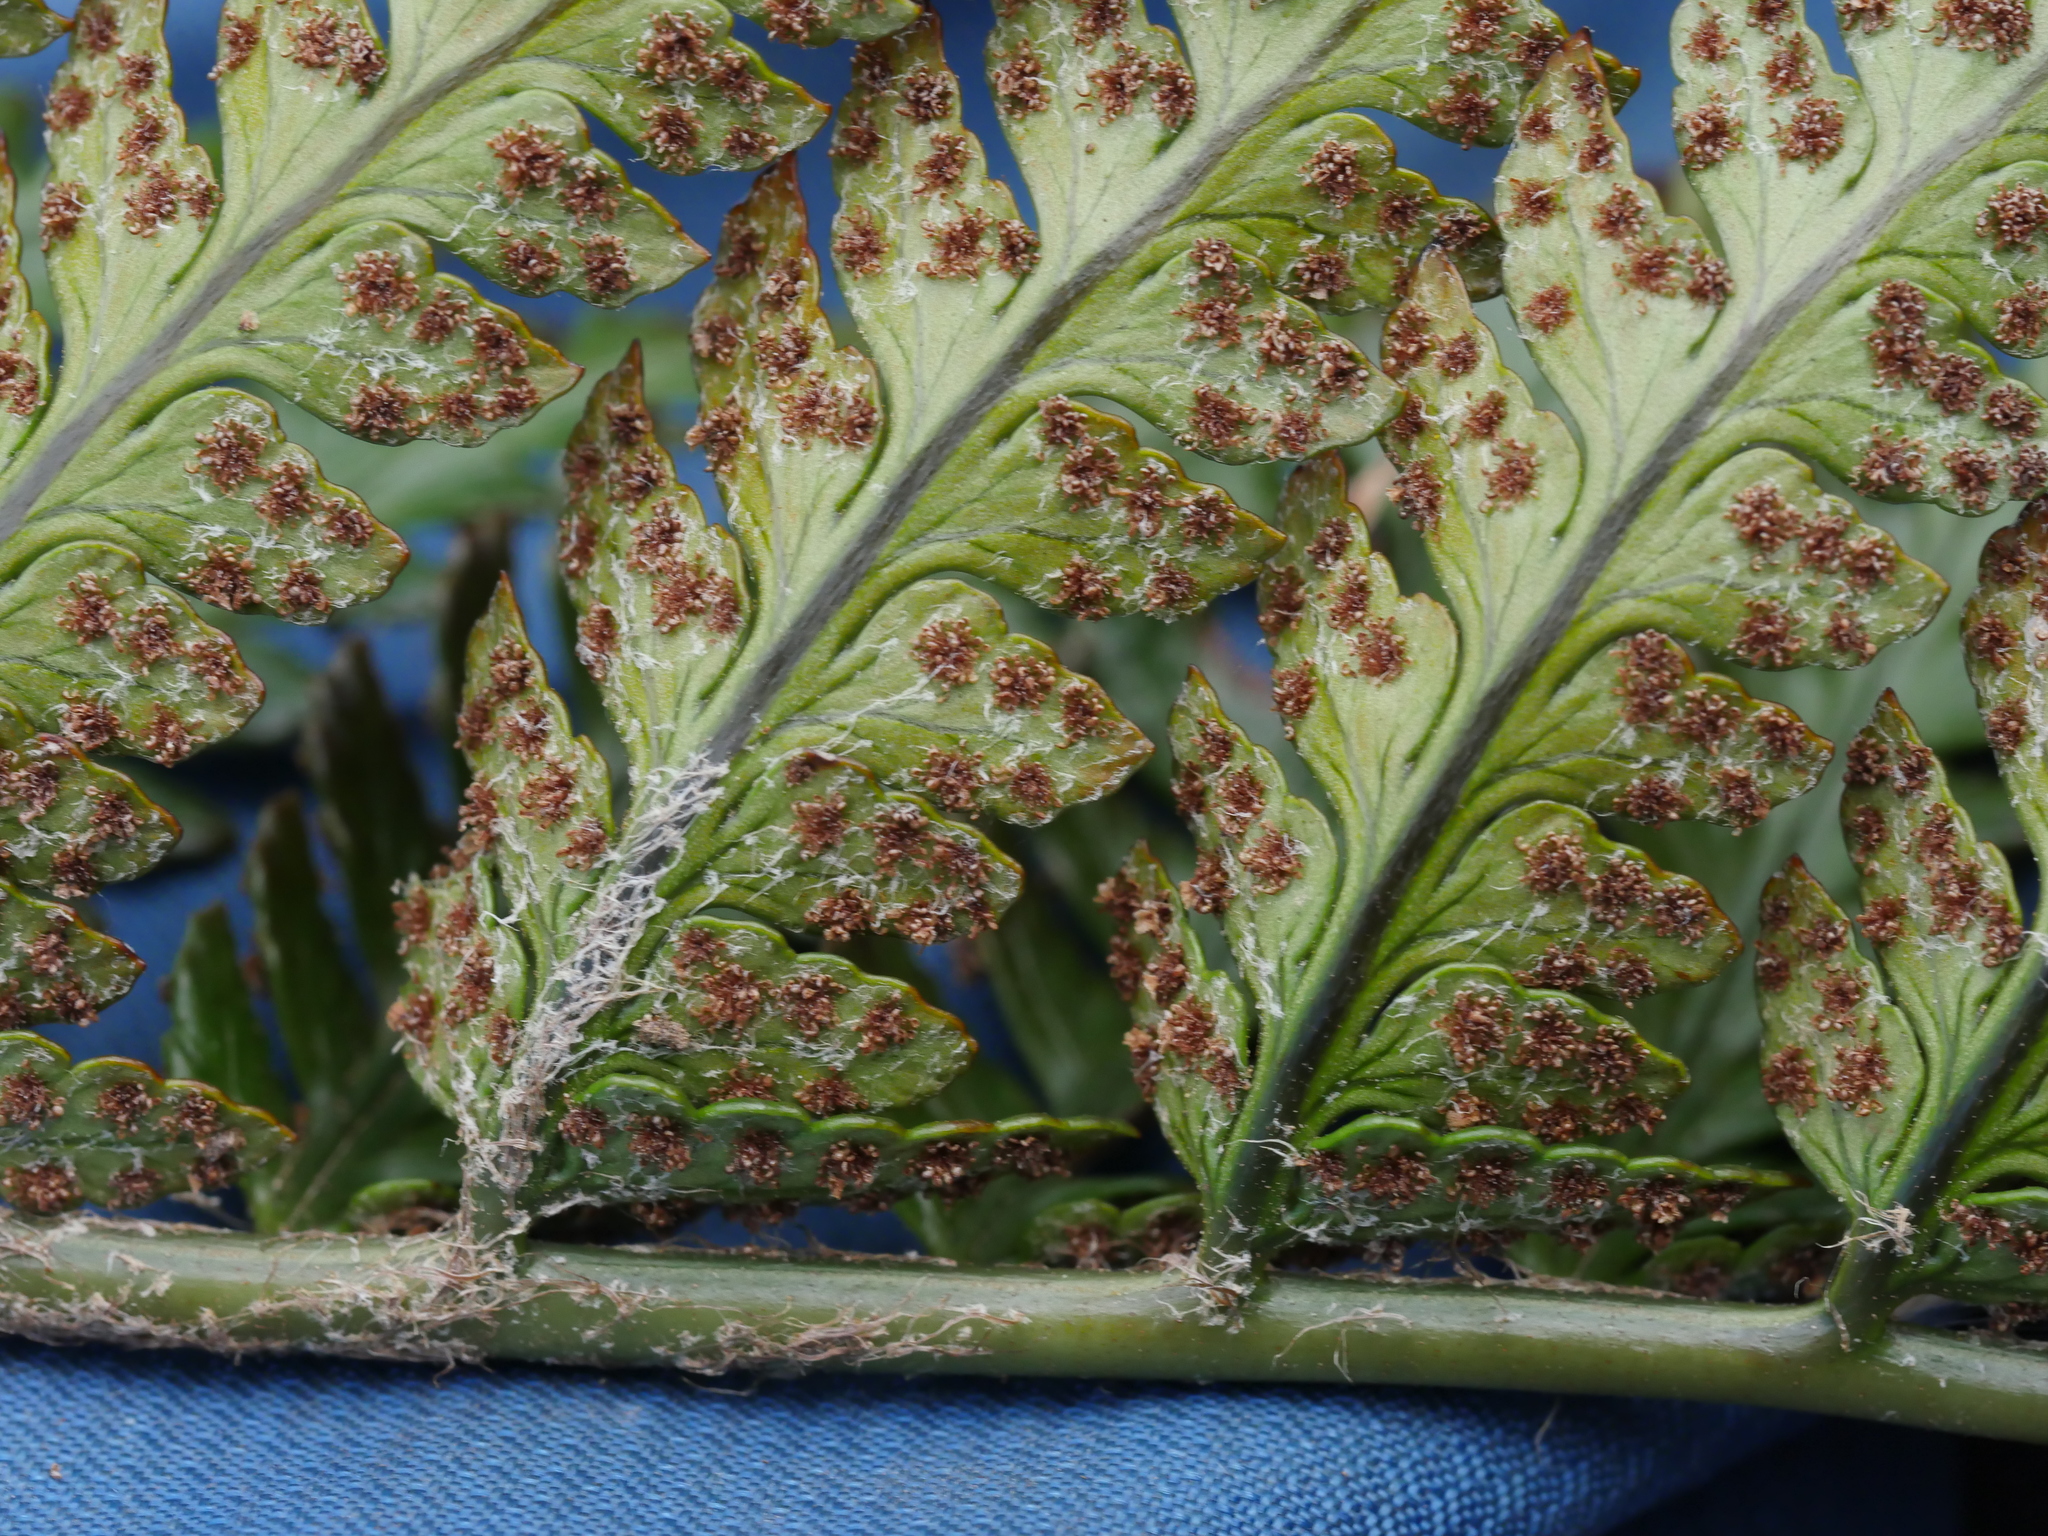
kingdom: Plantae
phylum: Tracheophyta
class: Polypodiopsida
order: Polypodiales
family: Dryopteridaceae
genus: Polystichum
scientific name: Polystichum wawranum
